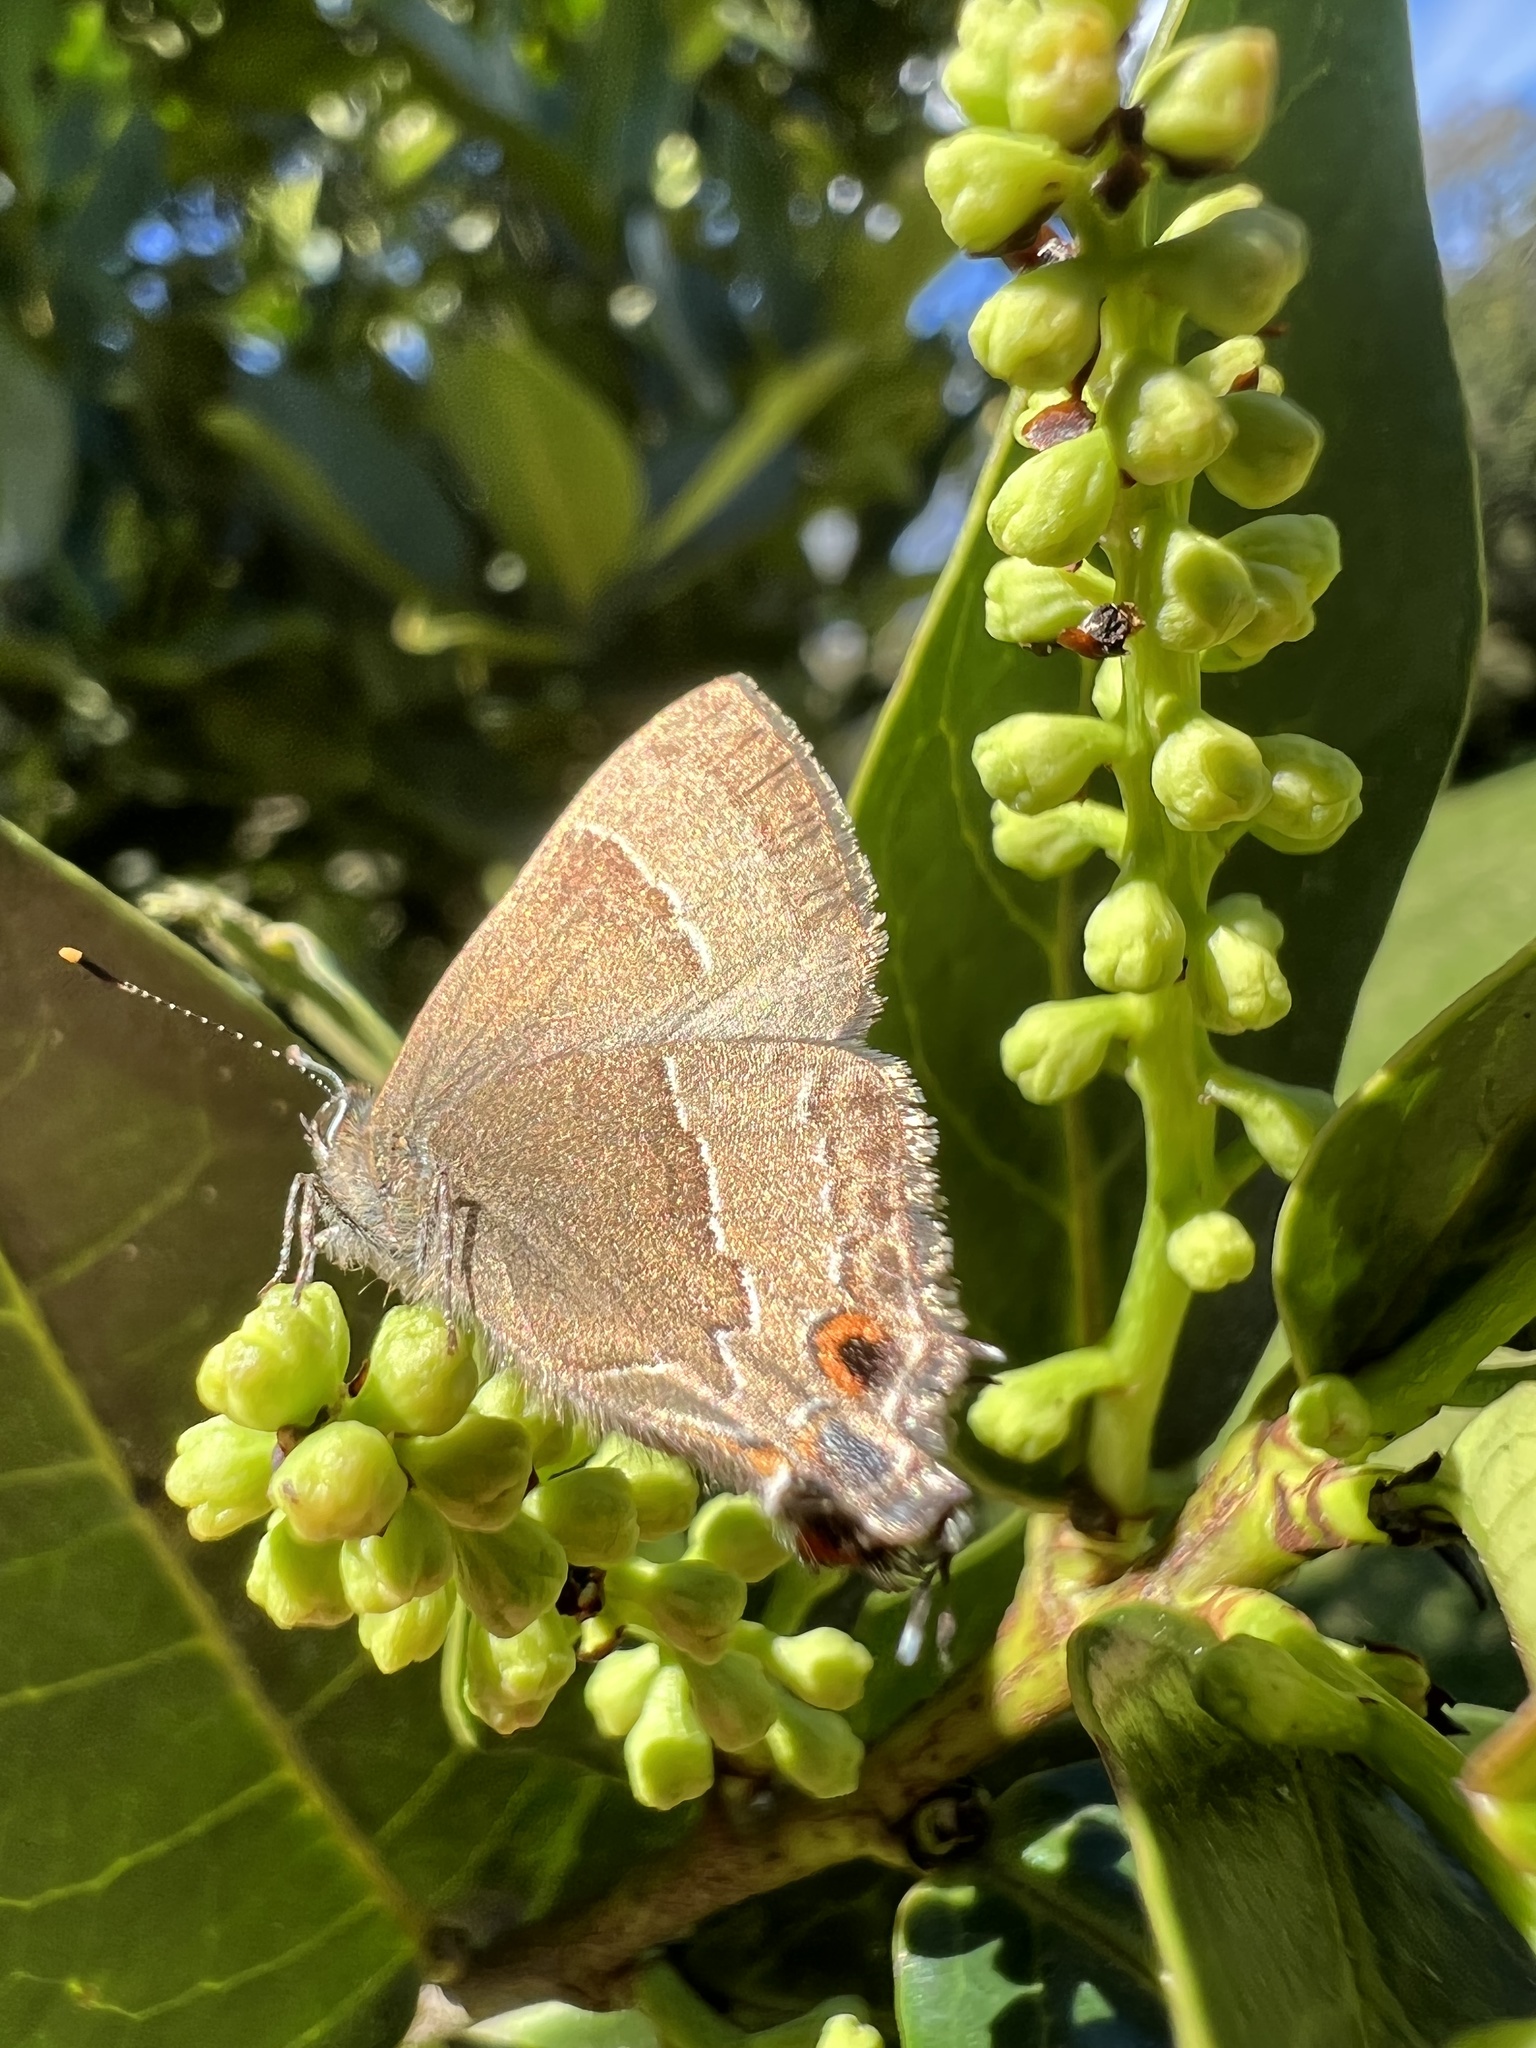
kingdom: Animalia
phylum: Arthropoda
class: Insecta
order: Lepidoptera
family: Lycaenidae
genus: Arzecla
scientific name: Arzecla sethon
